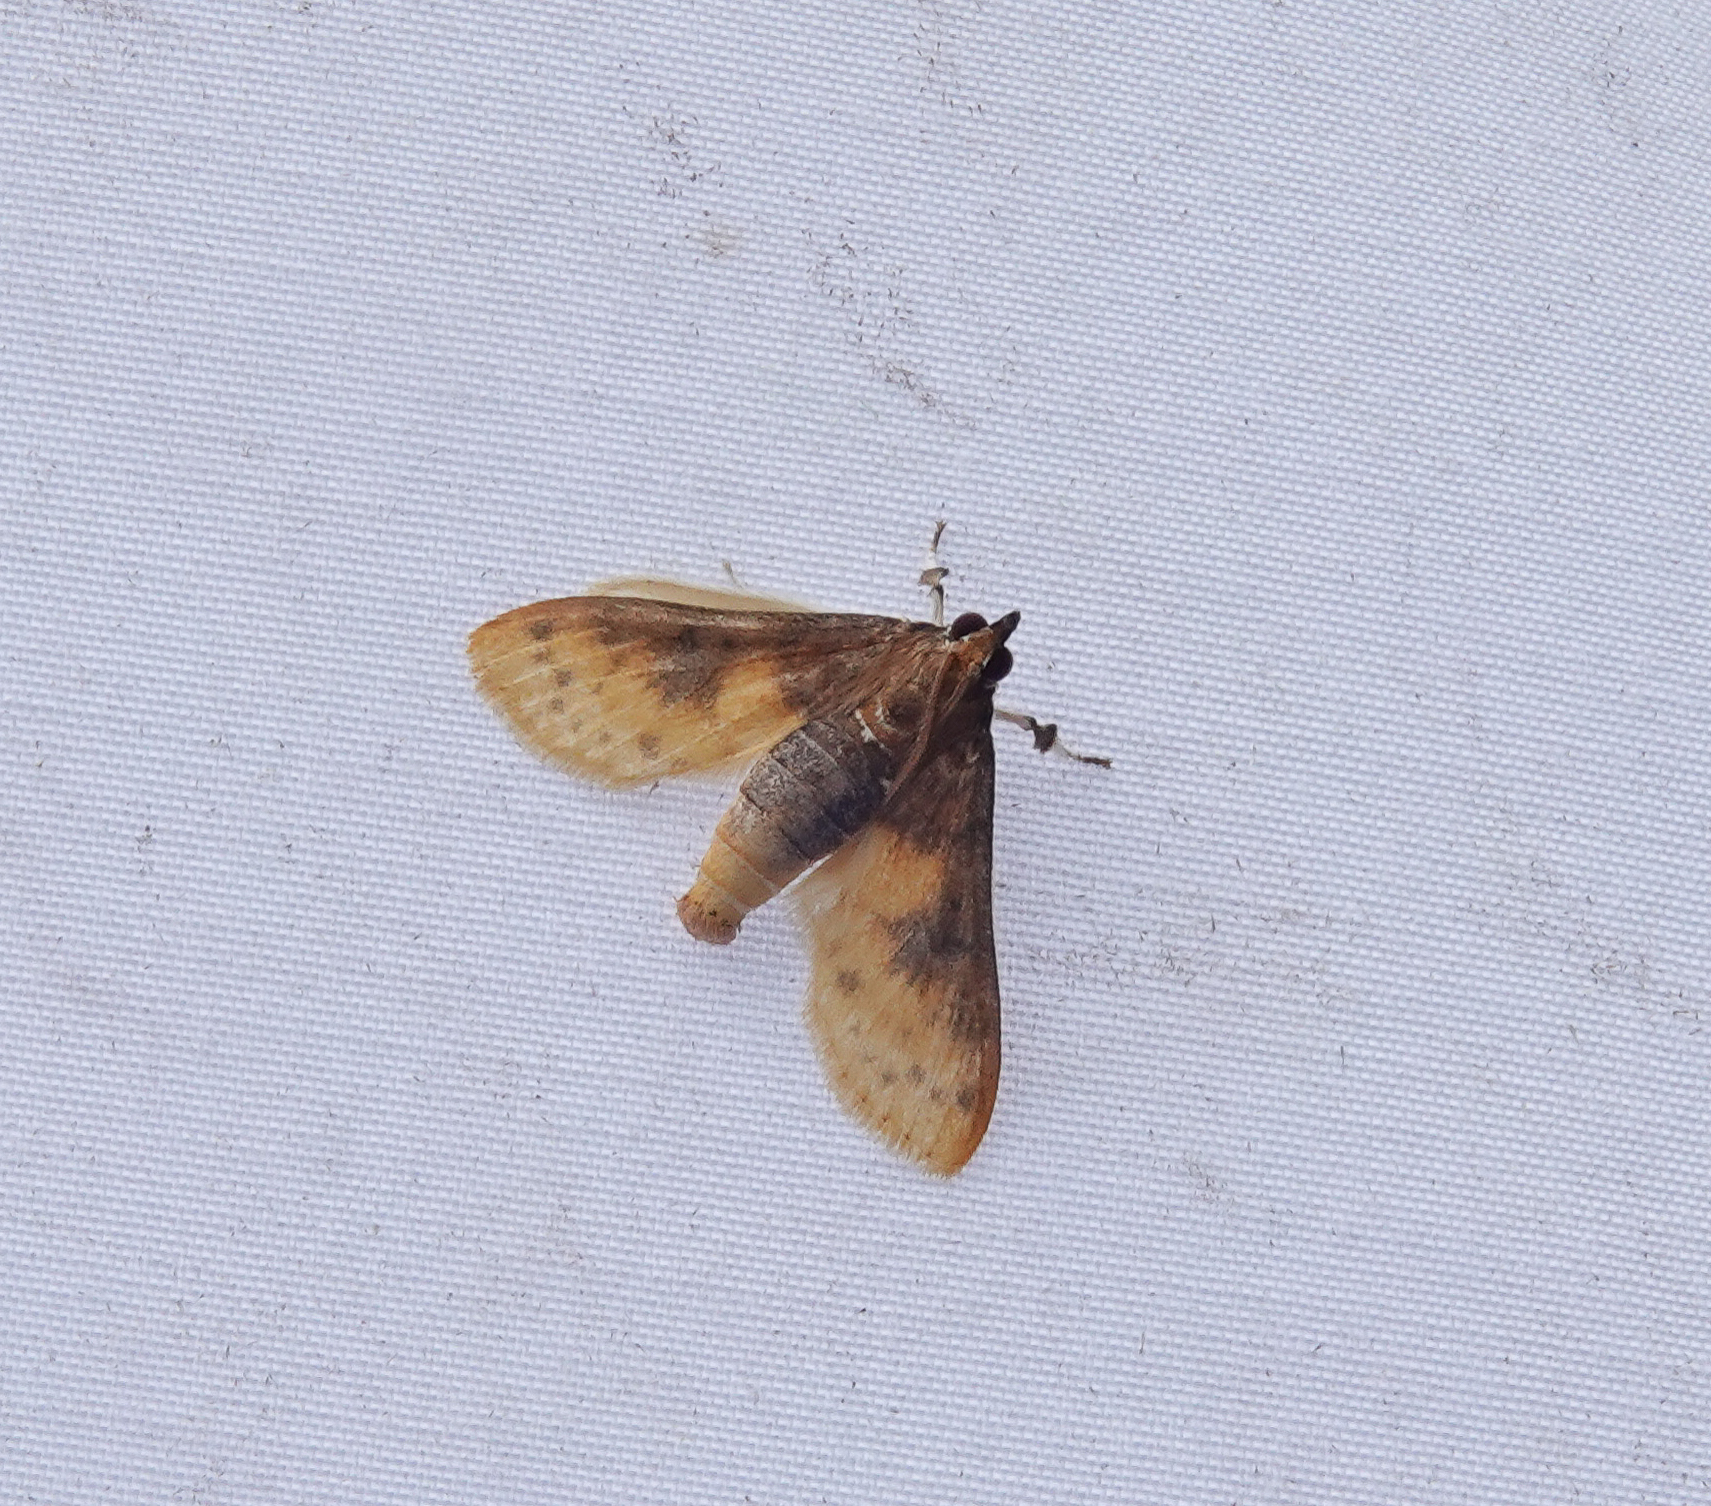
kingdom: Animalia
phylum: Arthropoda
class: Insecta
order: Lepidoptera
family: Crambidae
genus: Polygrammodes
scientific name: Polygrammodes sabelialis
